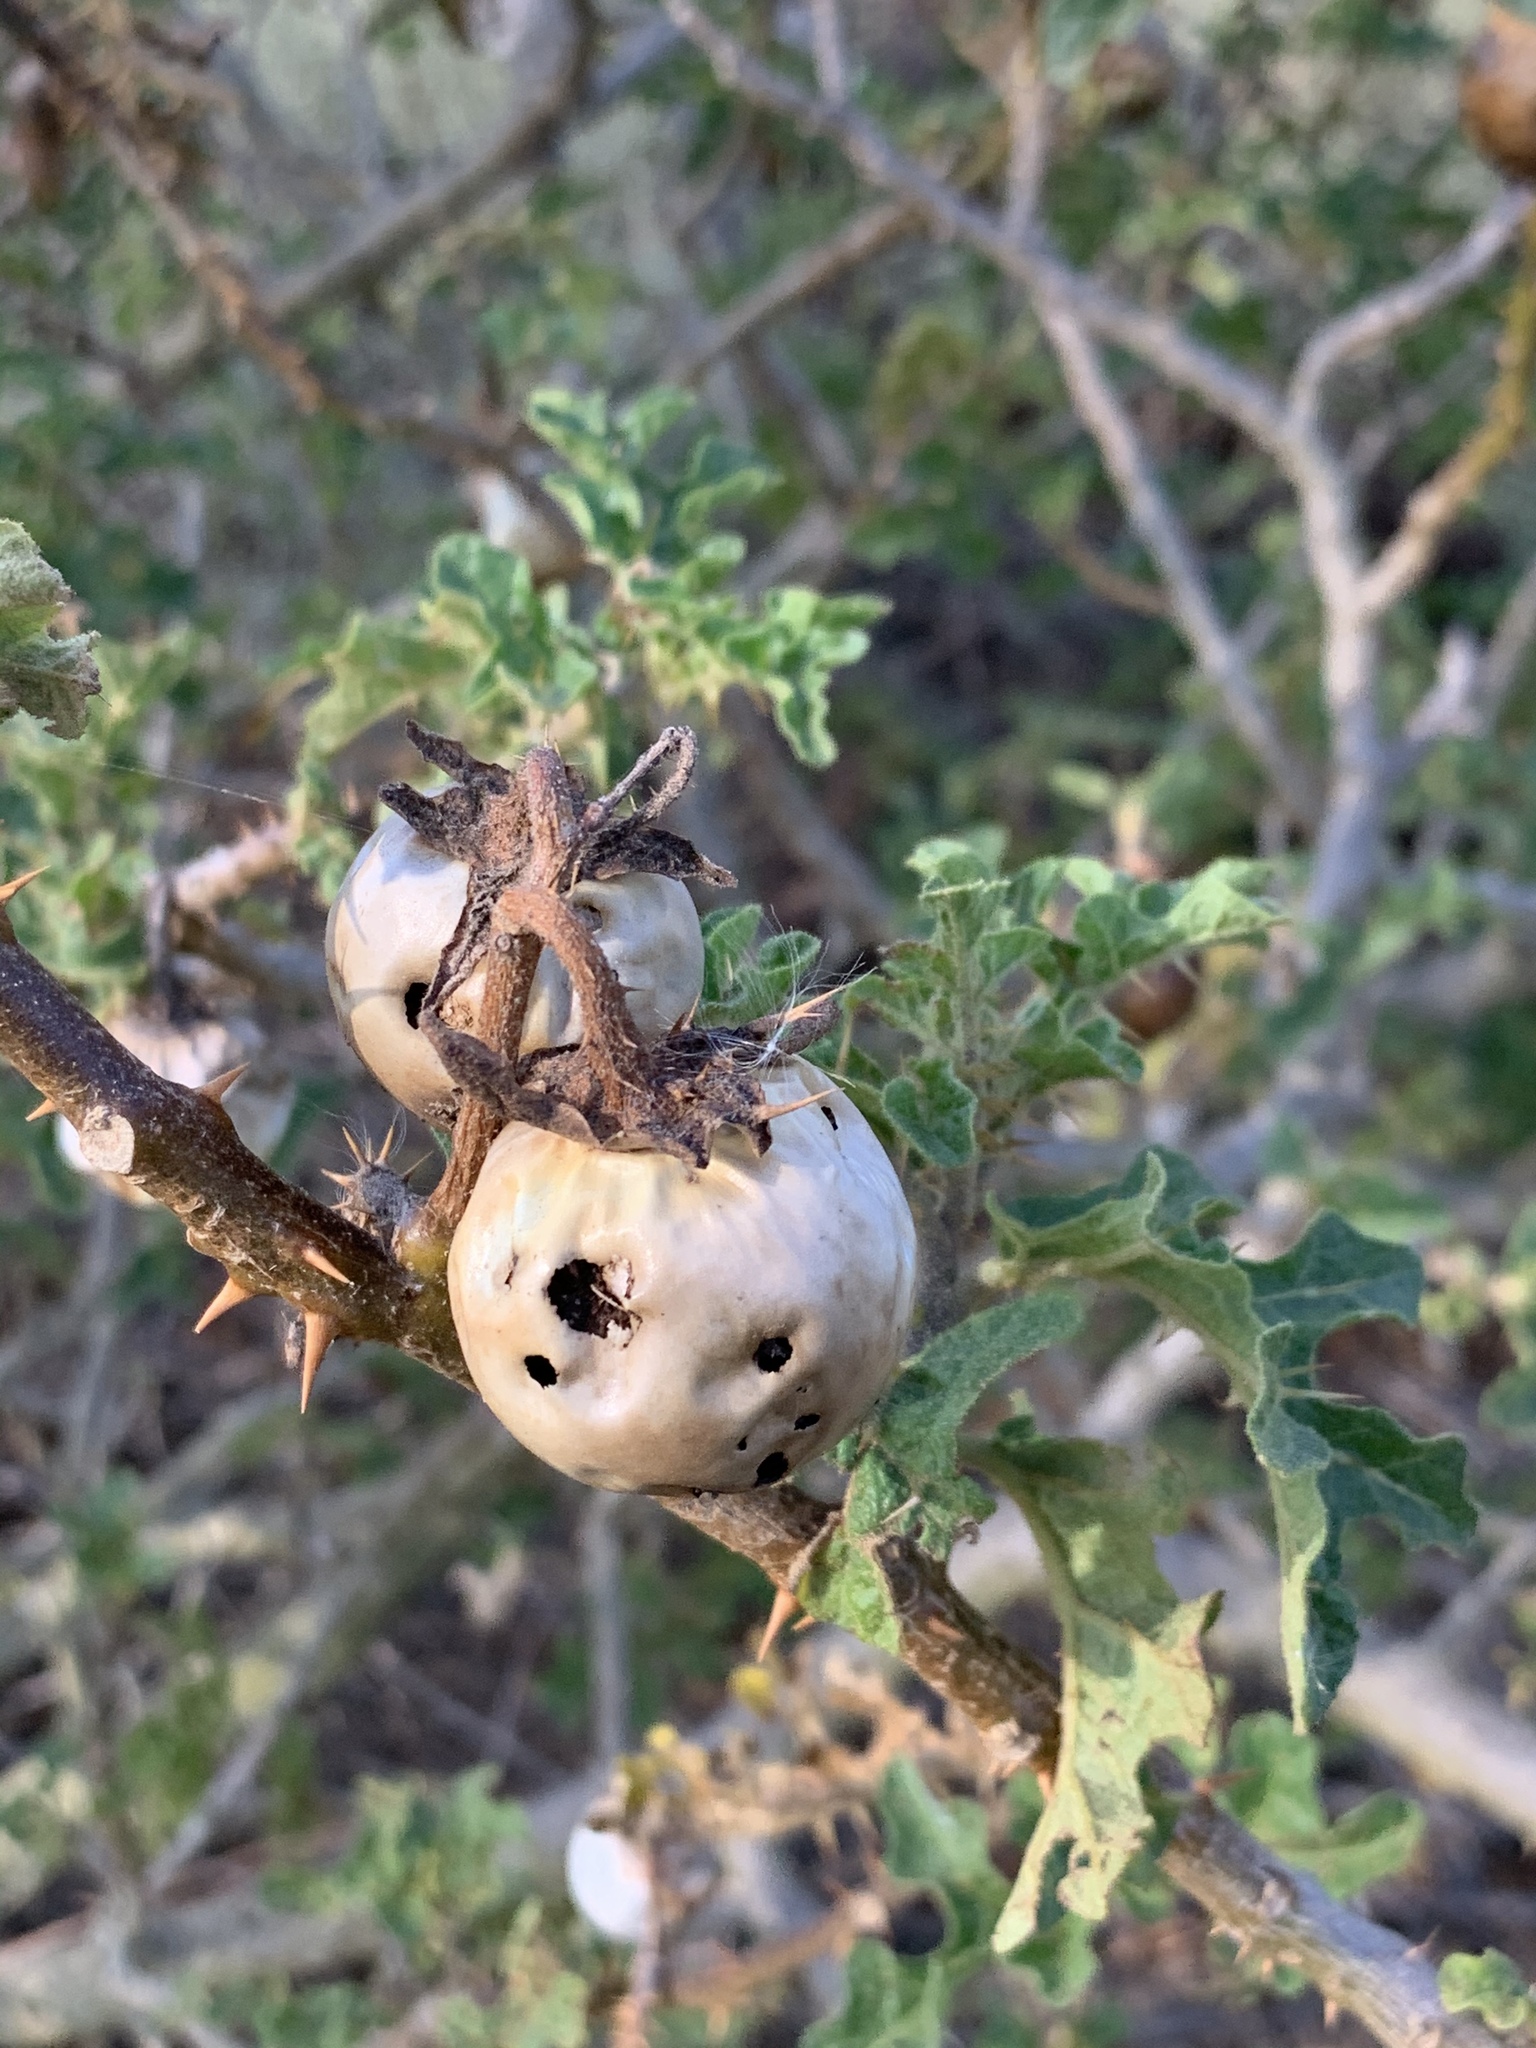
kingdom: Plantae
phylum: Tracheophyta
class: Magnoliopsida
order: Solanales
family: Solanaceae
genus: Solanum
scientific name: Solanum linnaeanum
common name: Nightshade
